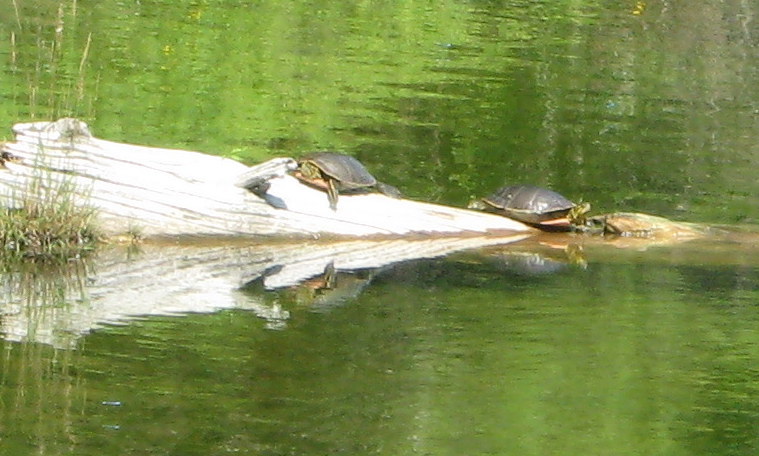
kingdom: Animalia
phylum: Chordata
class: Testudines
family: Emydidae
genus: Chrysemys
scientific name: Chrysemys picta
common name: Painted turtle
